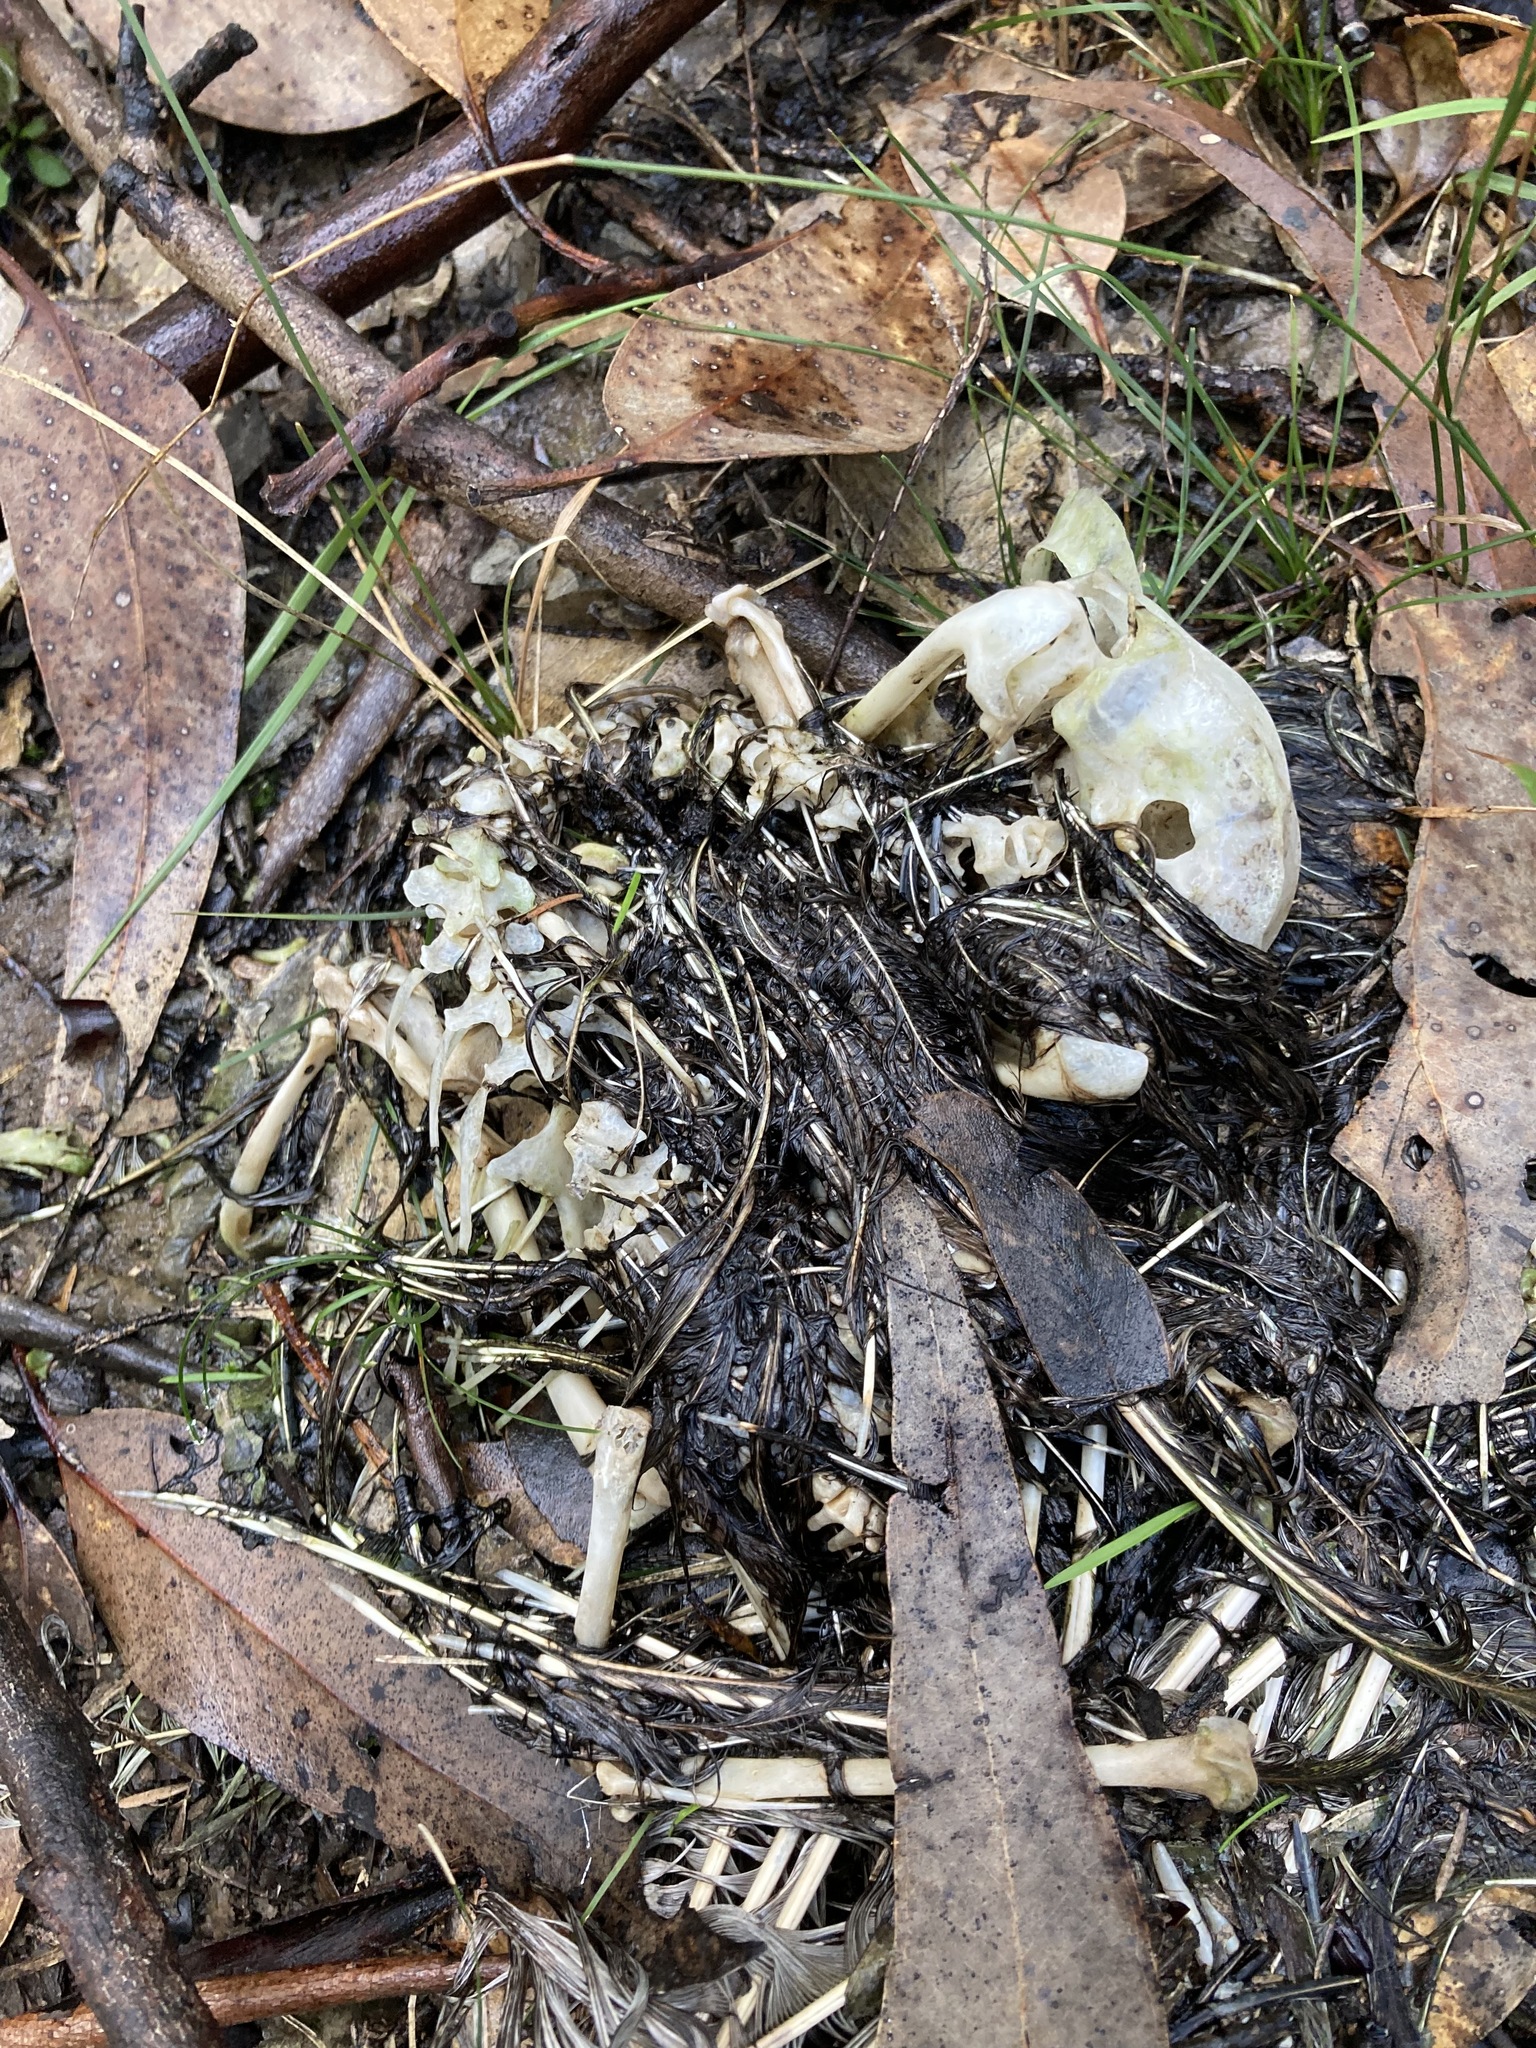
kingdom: Animalia
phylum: Chordata
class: Aves
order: Caprimulgiformes
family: Podargidae
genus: Podargus
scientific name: Podargus strigoides
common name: Tawny frogmouth
